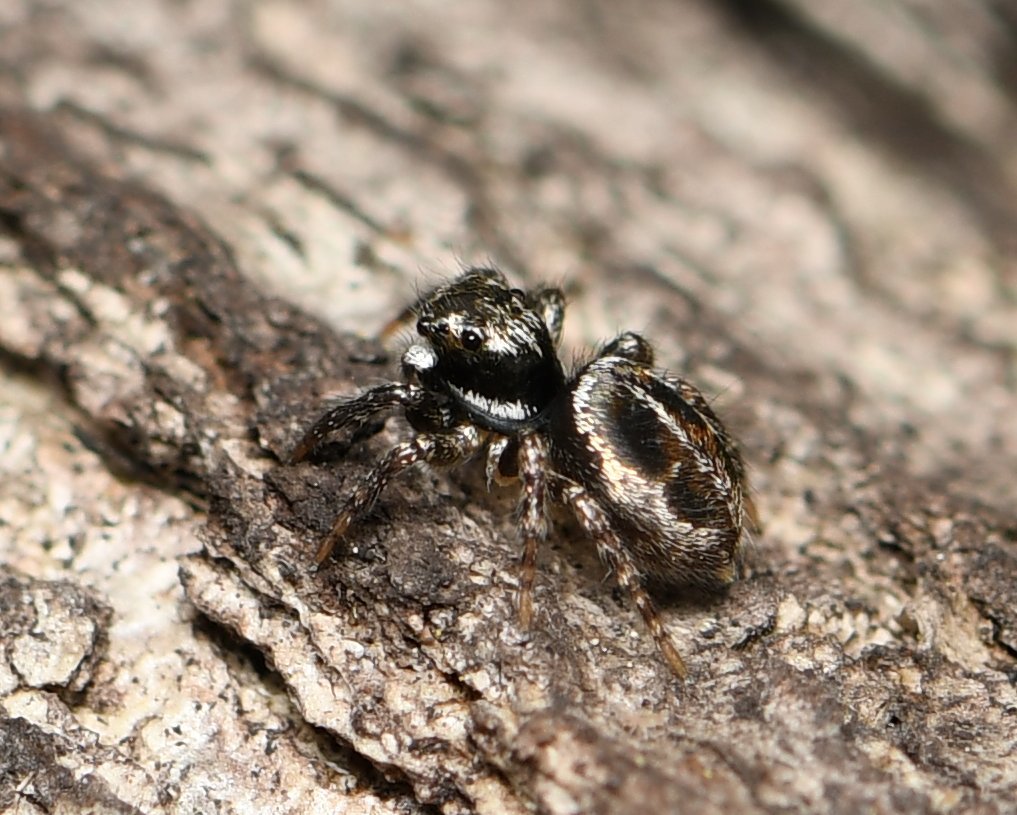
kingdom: Animalia
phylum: Arthropoda
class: Arachnida
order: Araneae
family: Salticidae
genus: Anasaitis
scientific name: Anasaitis canosa
